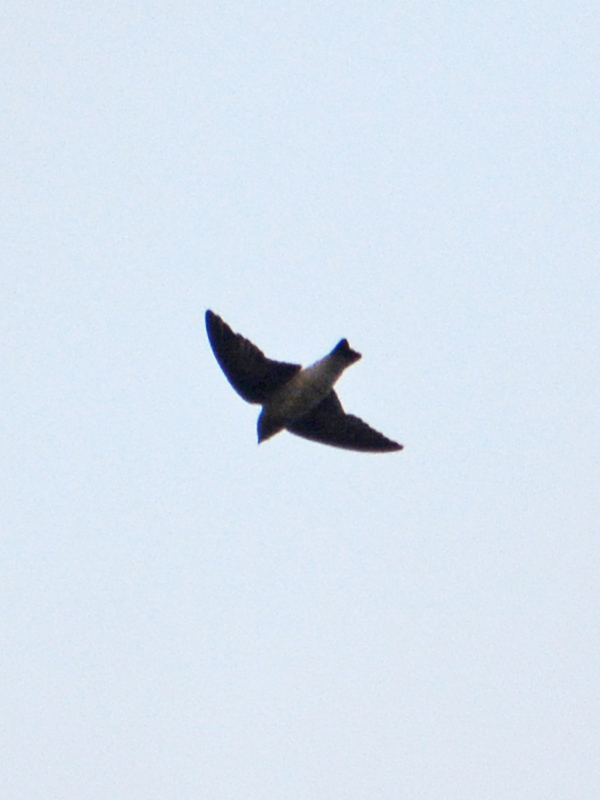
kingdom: Animalia
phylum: Chordata
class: Aves
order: Passeriformes
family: Hirundinidae
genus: Stelgidopteryx
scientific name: Stelgidopteryx serripennis
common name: Northern rough-winged swallow
